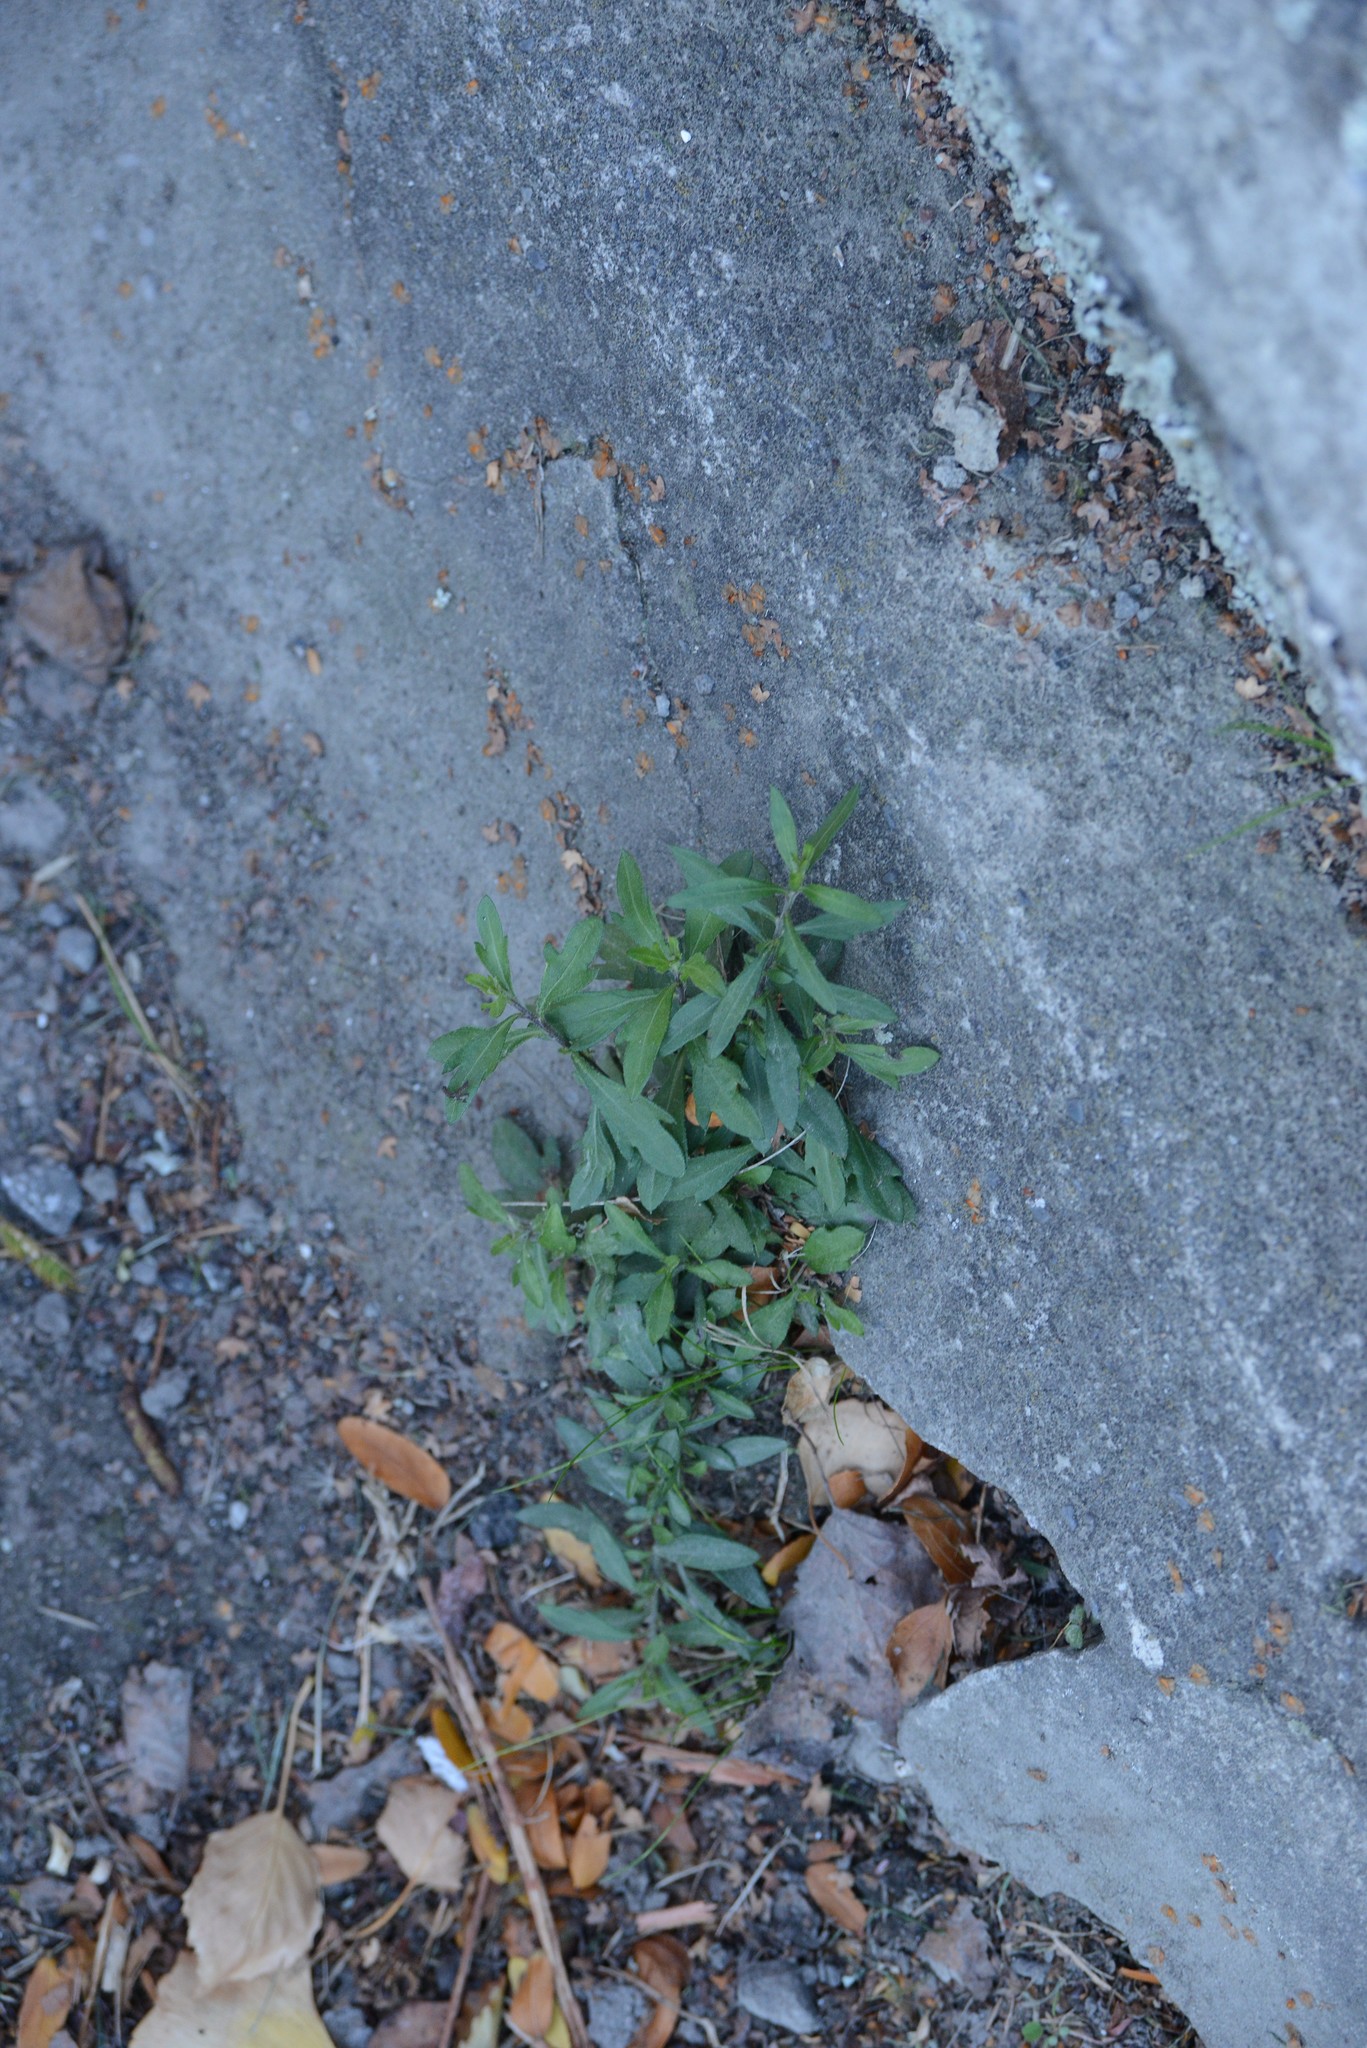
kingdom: Plantae
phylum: Tracheophyta
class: Magnoliopsida
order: Asterales
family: Asteraceae
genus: Erigeron
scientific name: Erigeron karvinskianus
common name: Mexican fleabane
